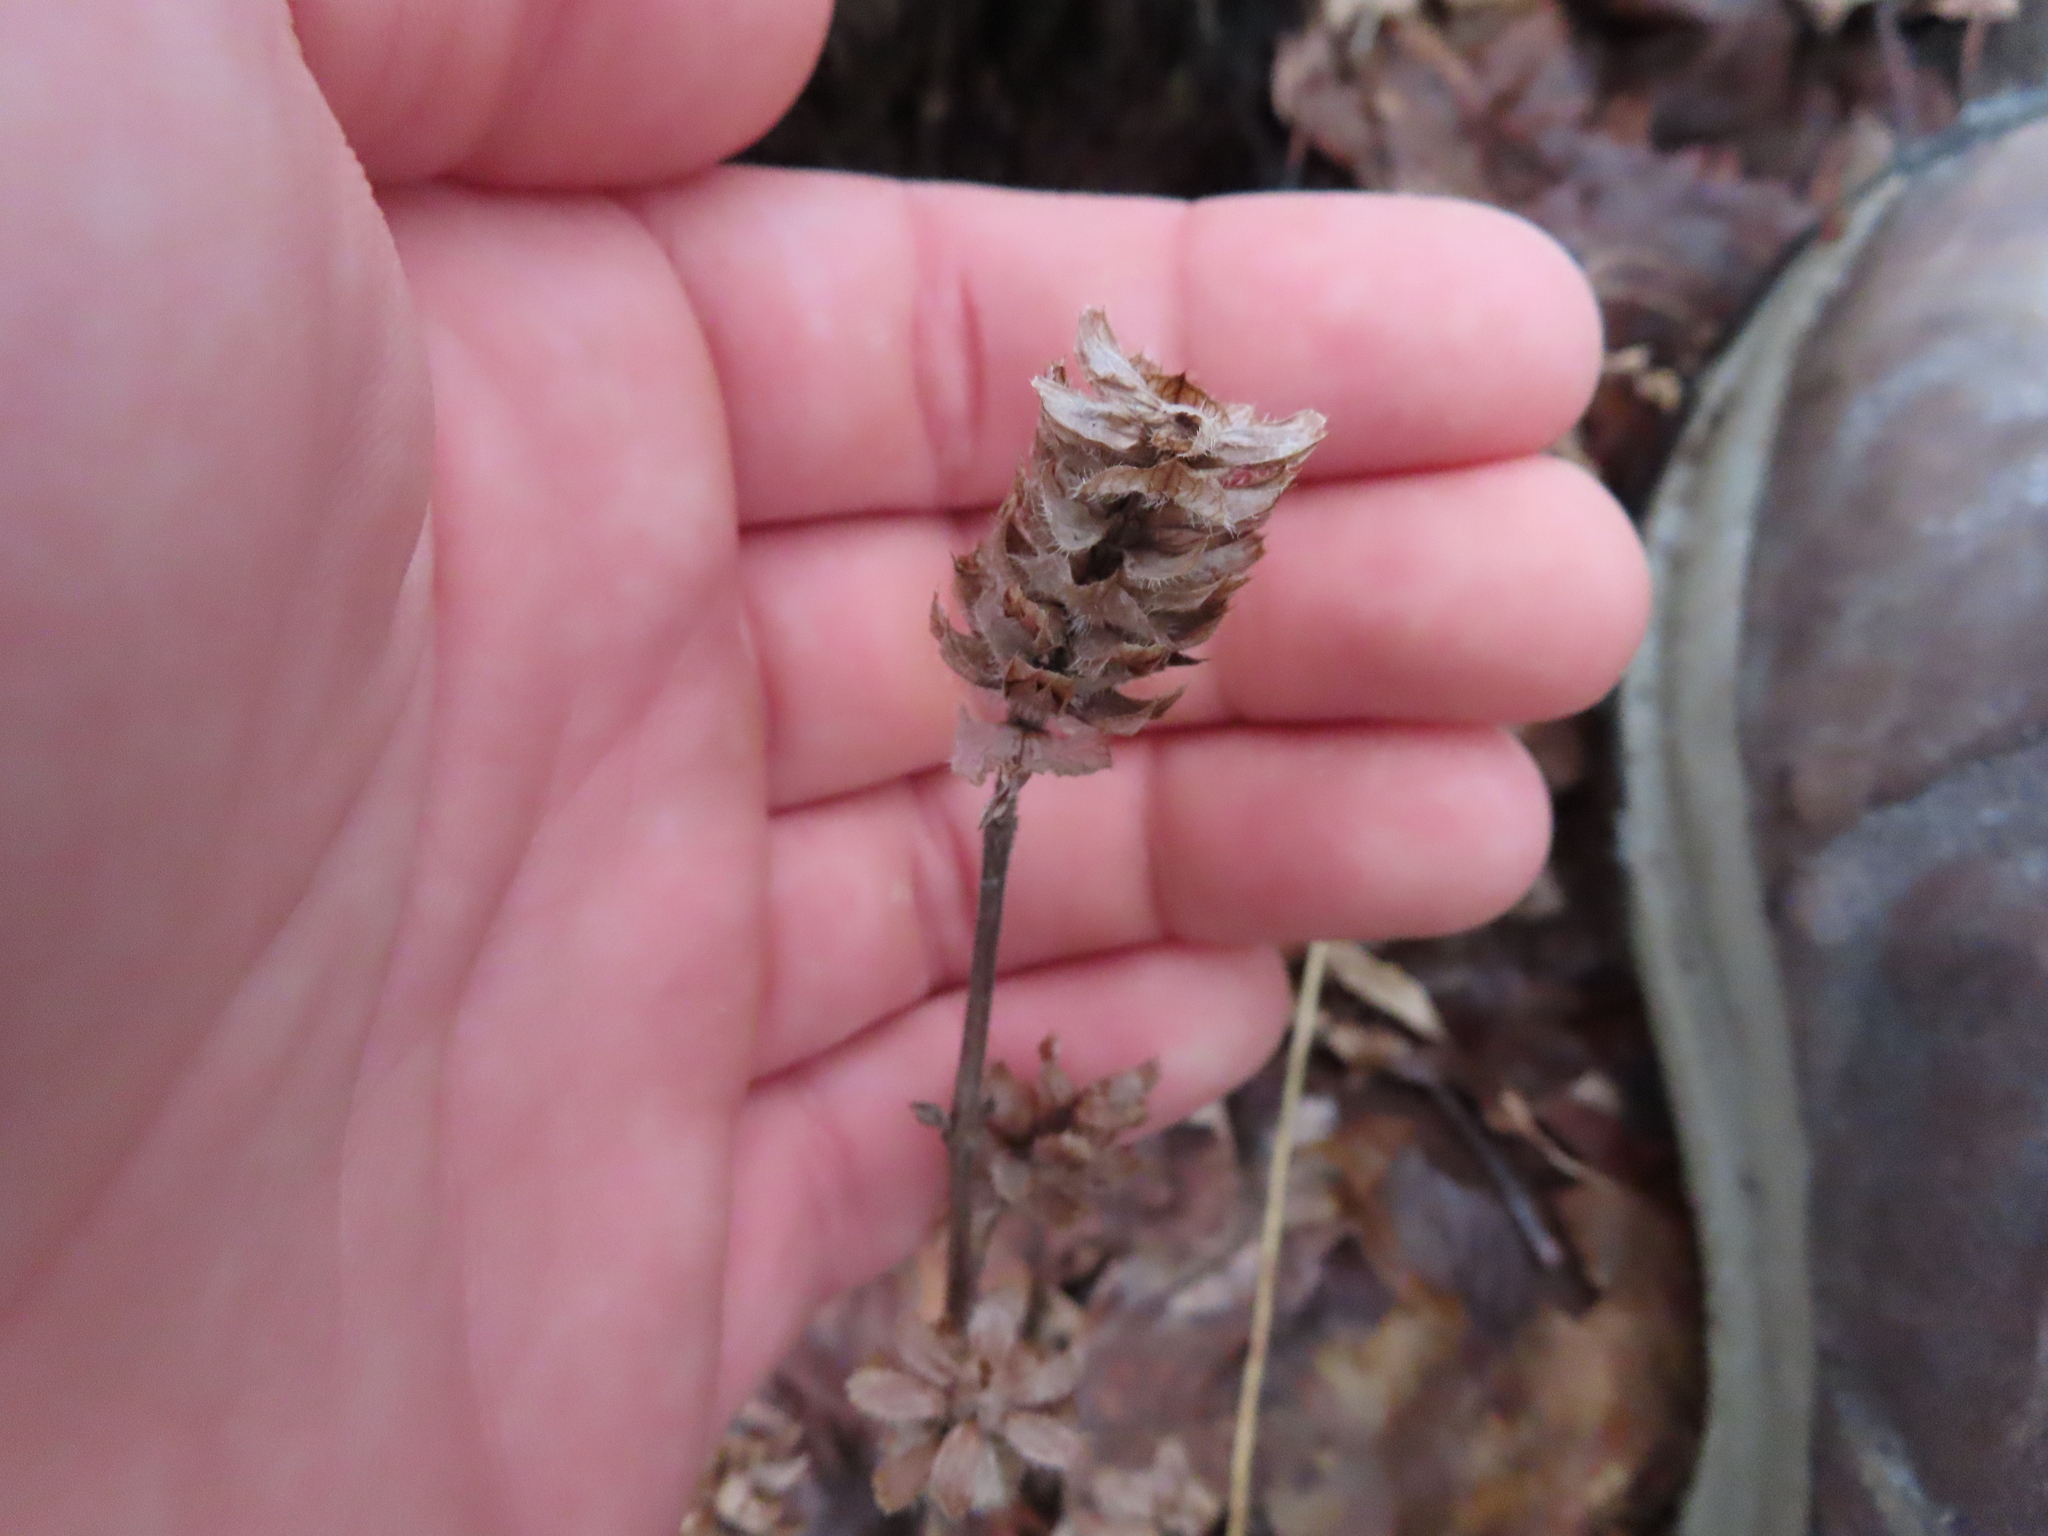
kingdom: Plantae
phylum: Tracheophyta
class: Magnoliopsida
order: Lamiales
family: Lamiaceae
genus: Prunella
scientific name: Prunella vulgaris
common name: Heal-all
